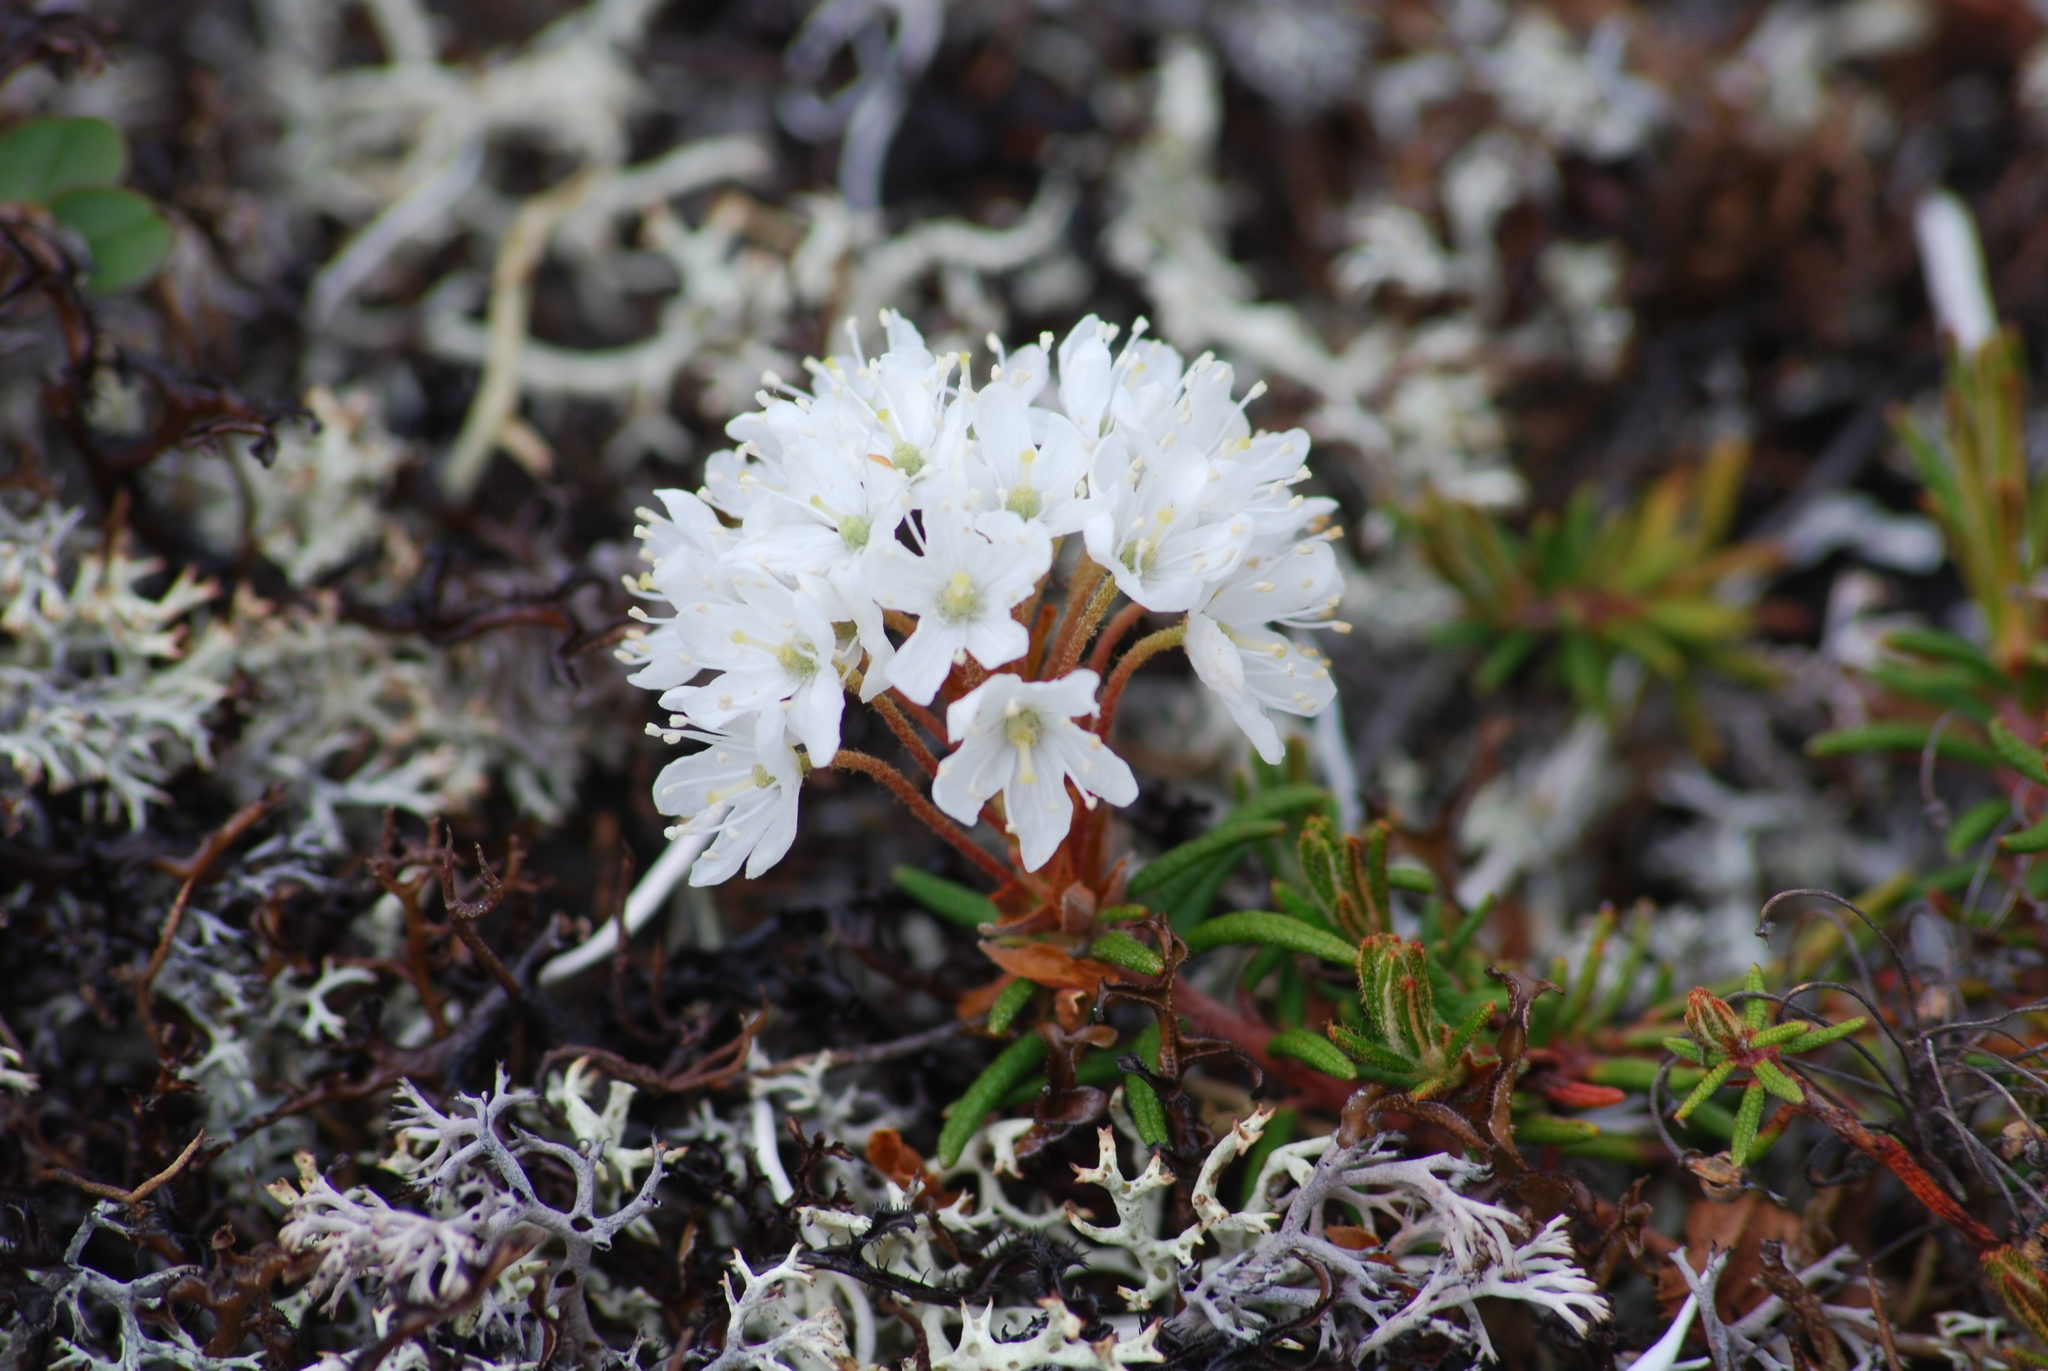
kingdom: Plantae
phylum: Tracheophyta
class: Magnoliopsida
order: Ericales
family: Ericaceae
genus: Rhododendron
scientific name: Rhododendron tomentosum
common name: Marsh labrador tea
